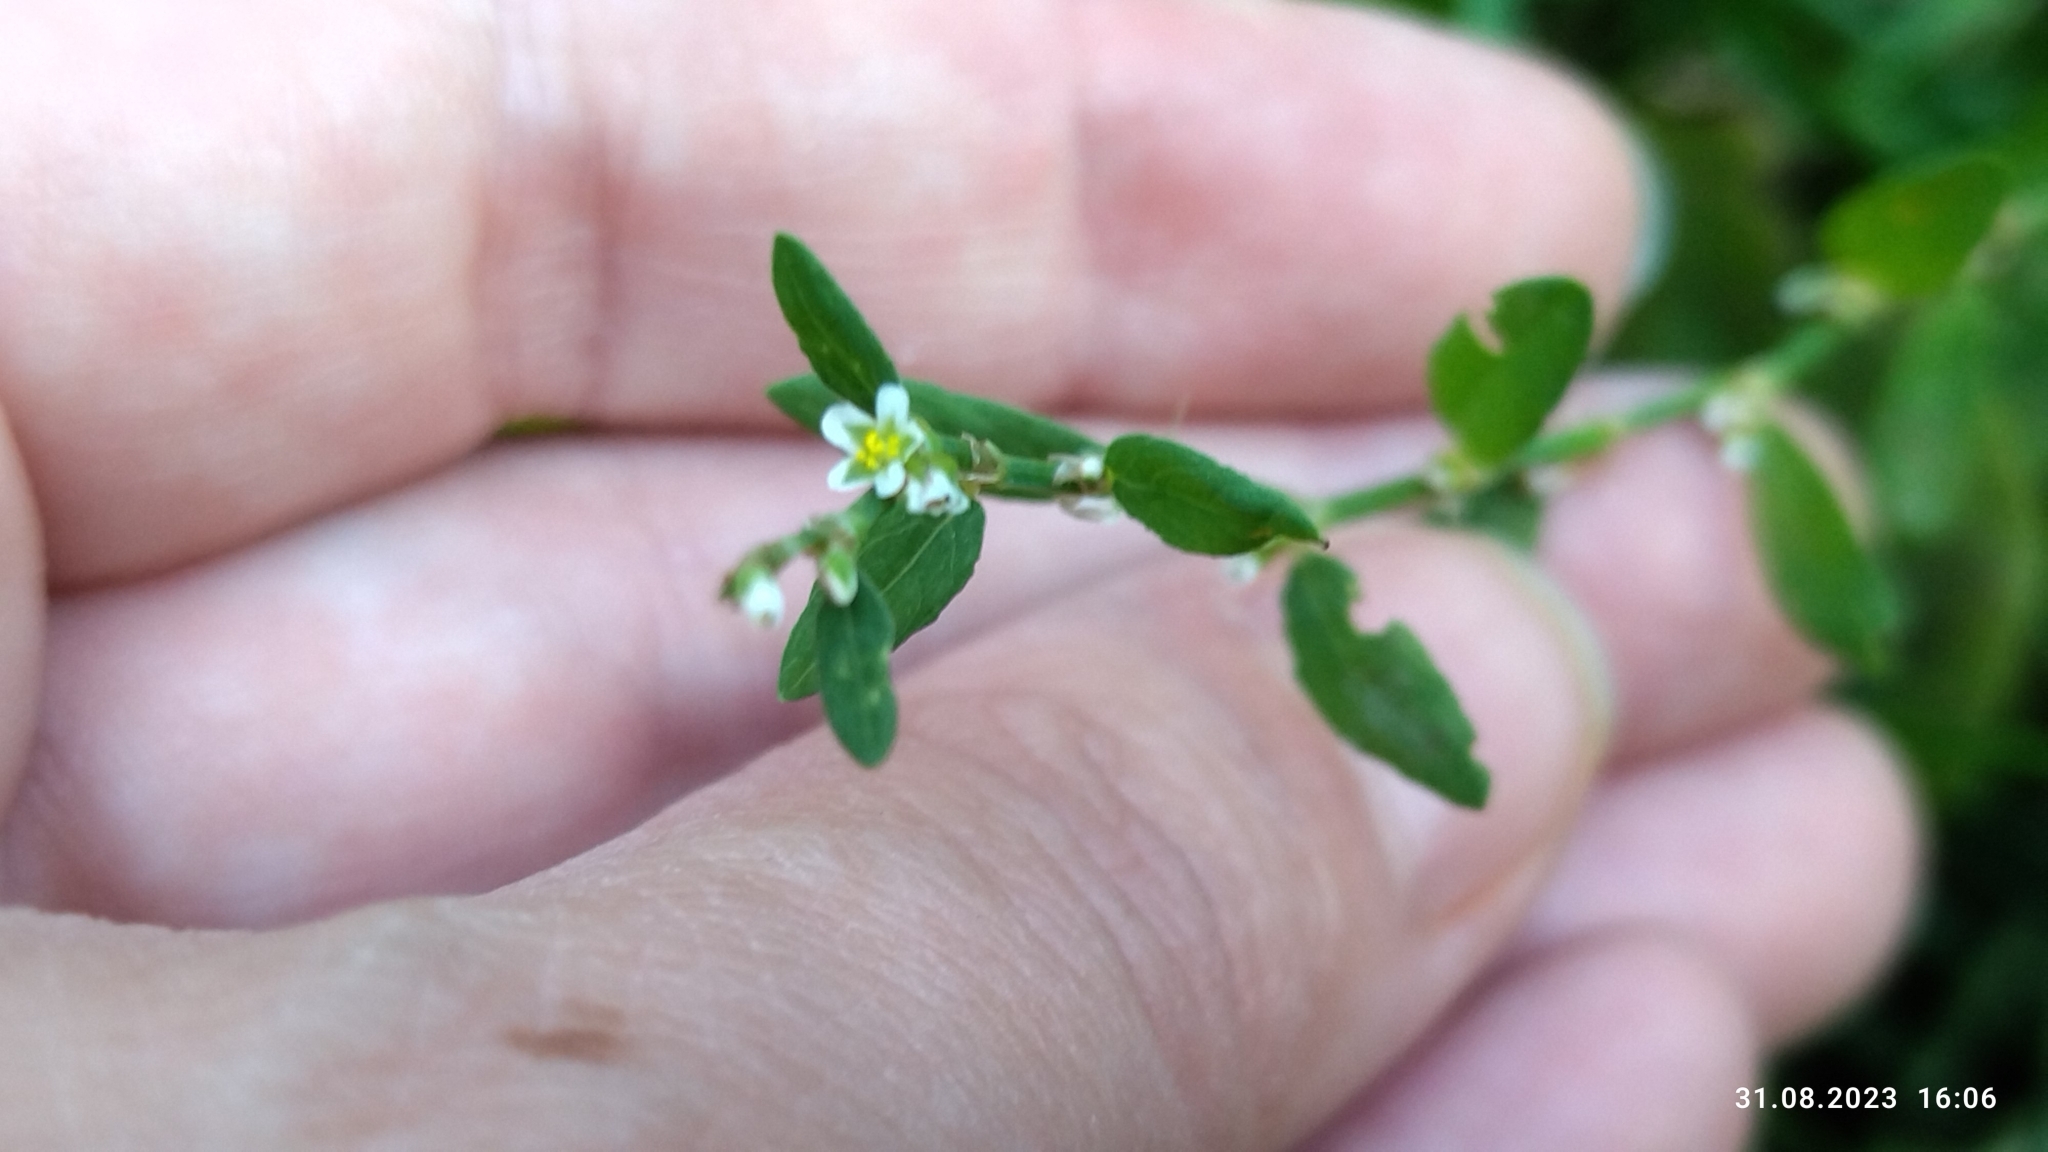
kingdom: Plantae
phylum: Tracheophyta
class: Magnoliopsida
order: Caryophyllales
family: Polygonaceae
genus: Polygonum
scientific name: Polygonum
